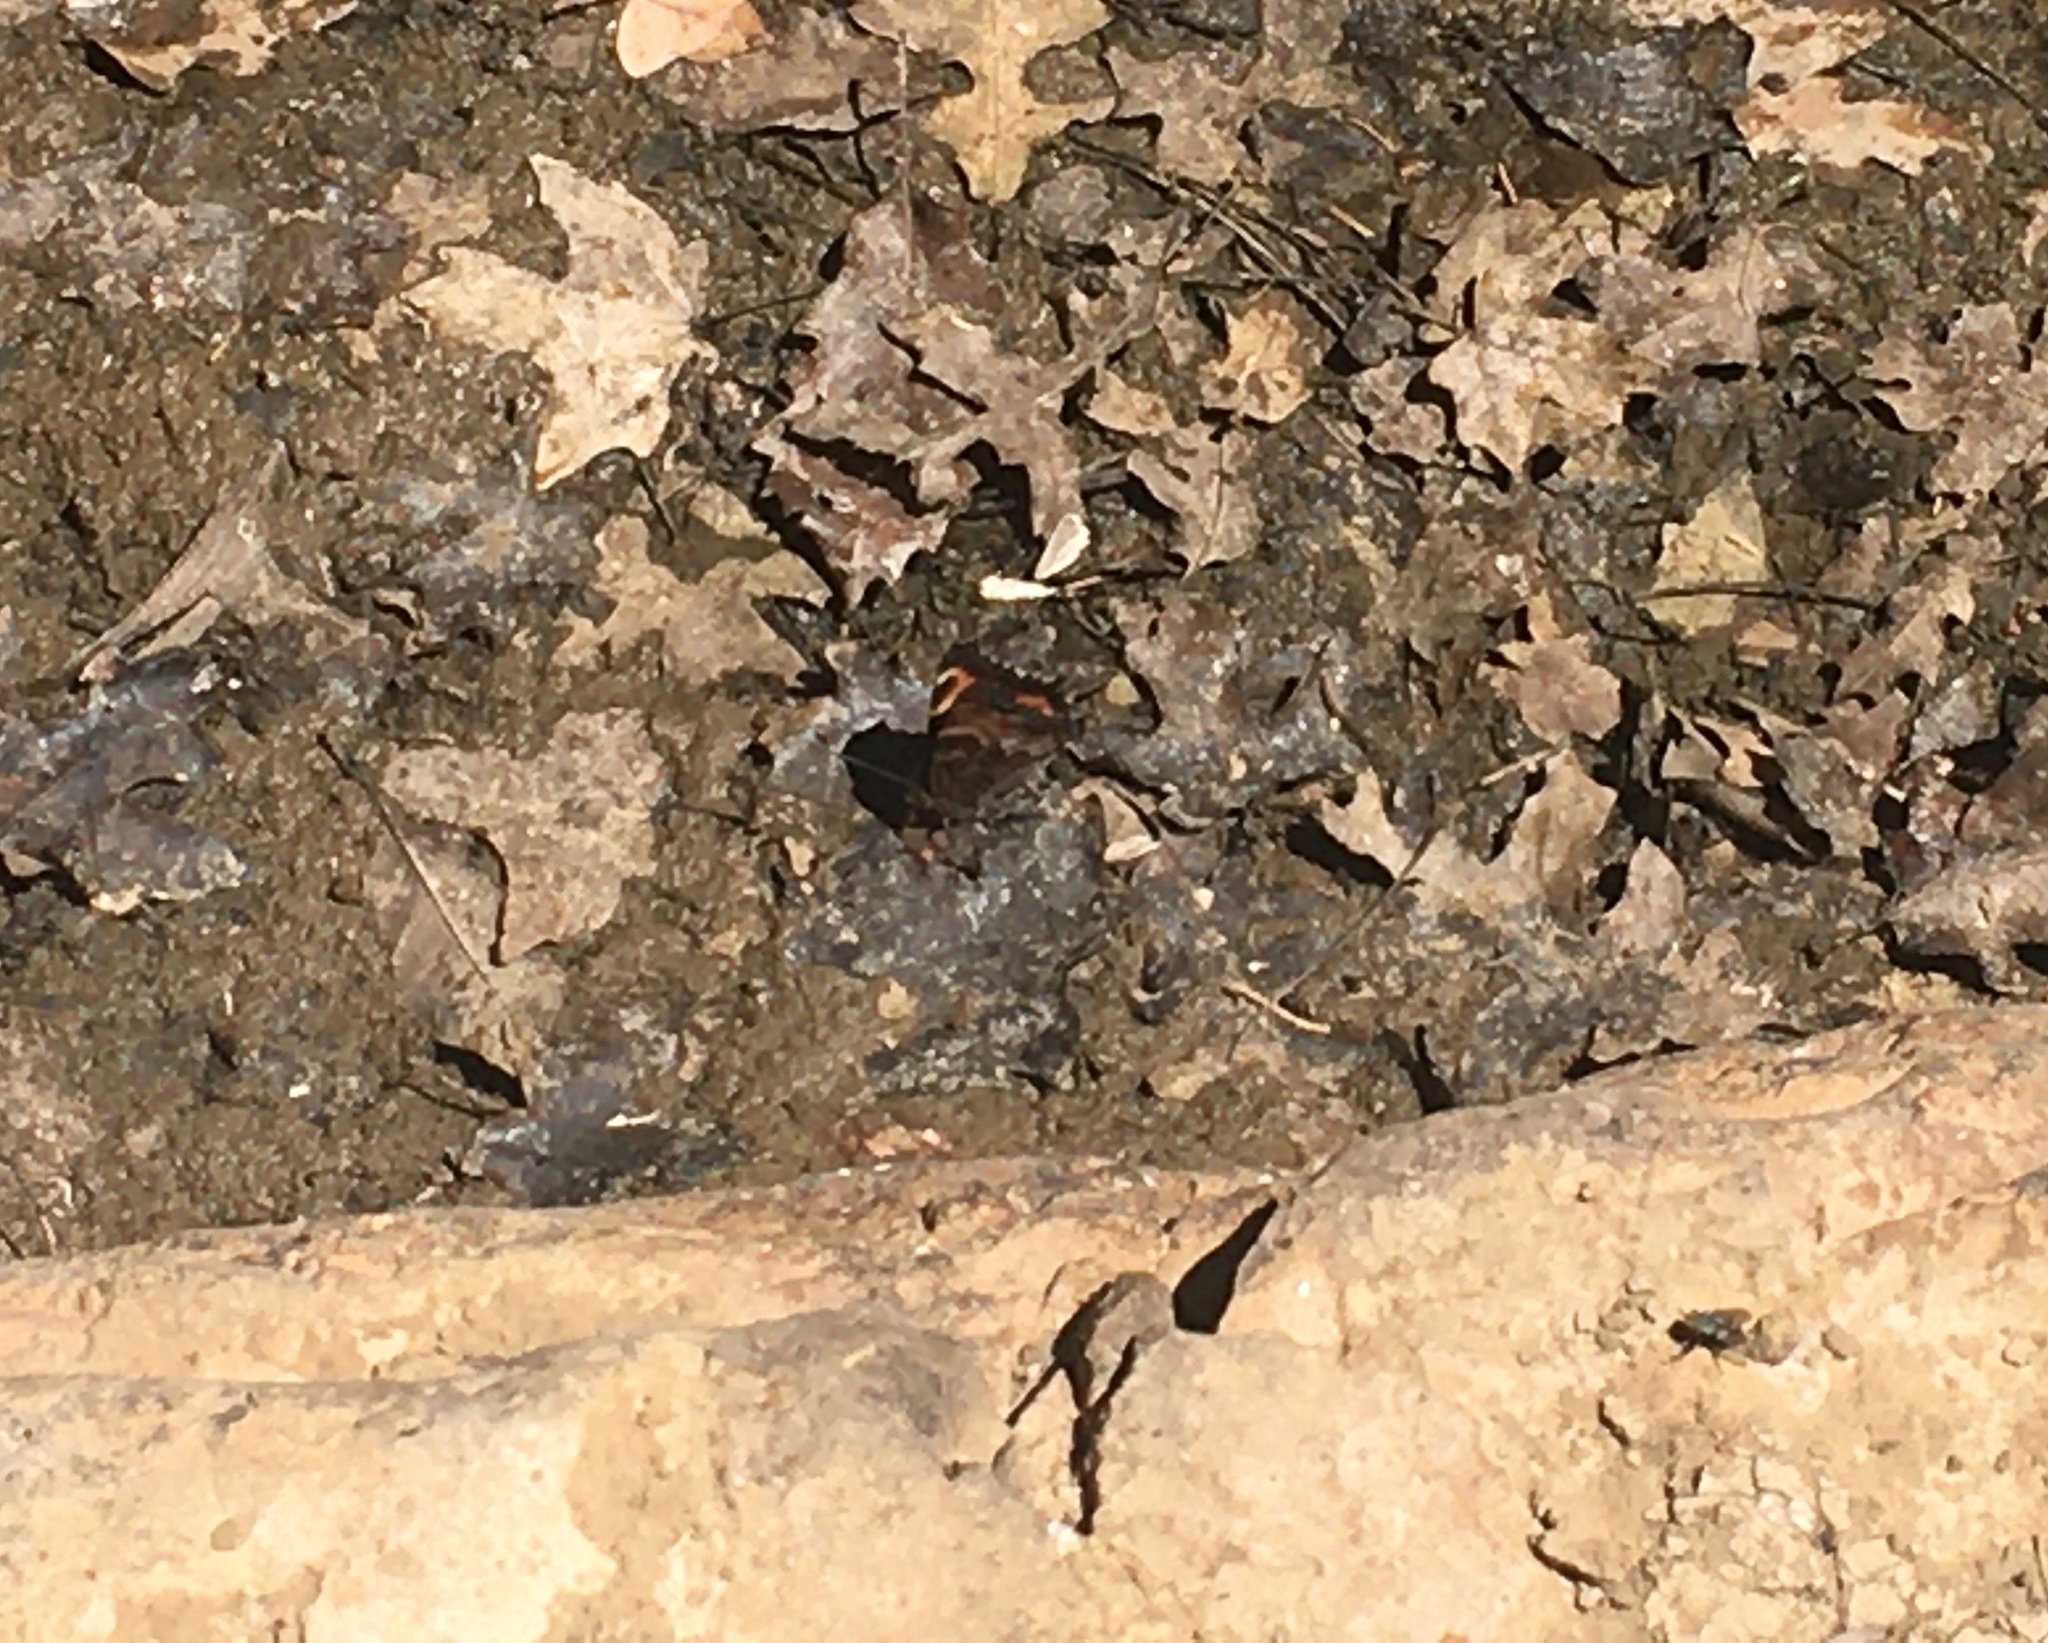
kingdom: Animalia
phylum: Arthropoda
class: Insecta
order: Lepidoptera
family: Nymphalidae
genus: Nymphalis
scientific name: Nymphalis californica
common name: California tortoiseshell
